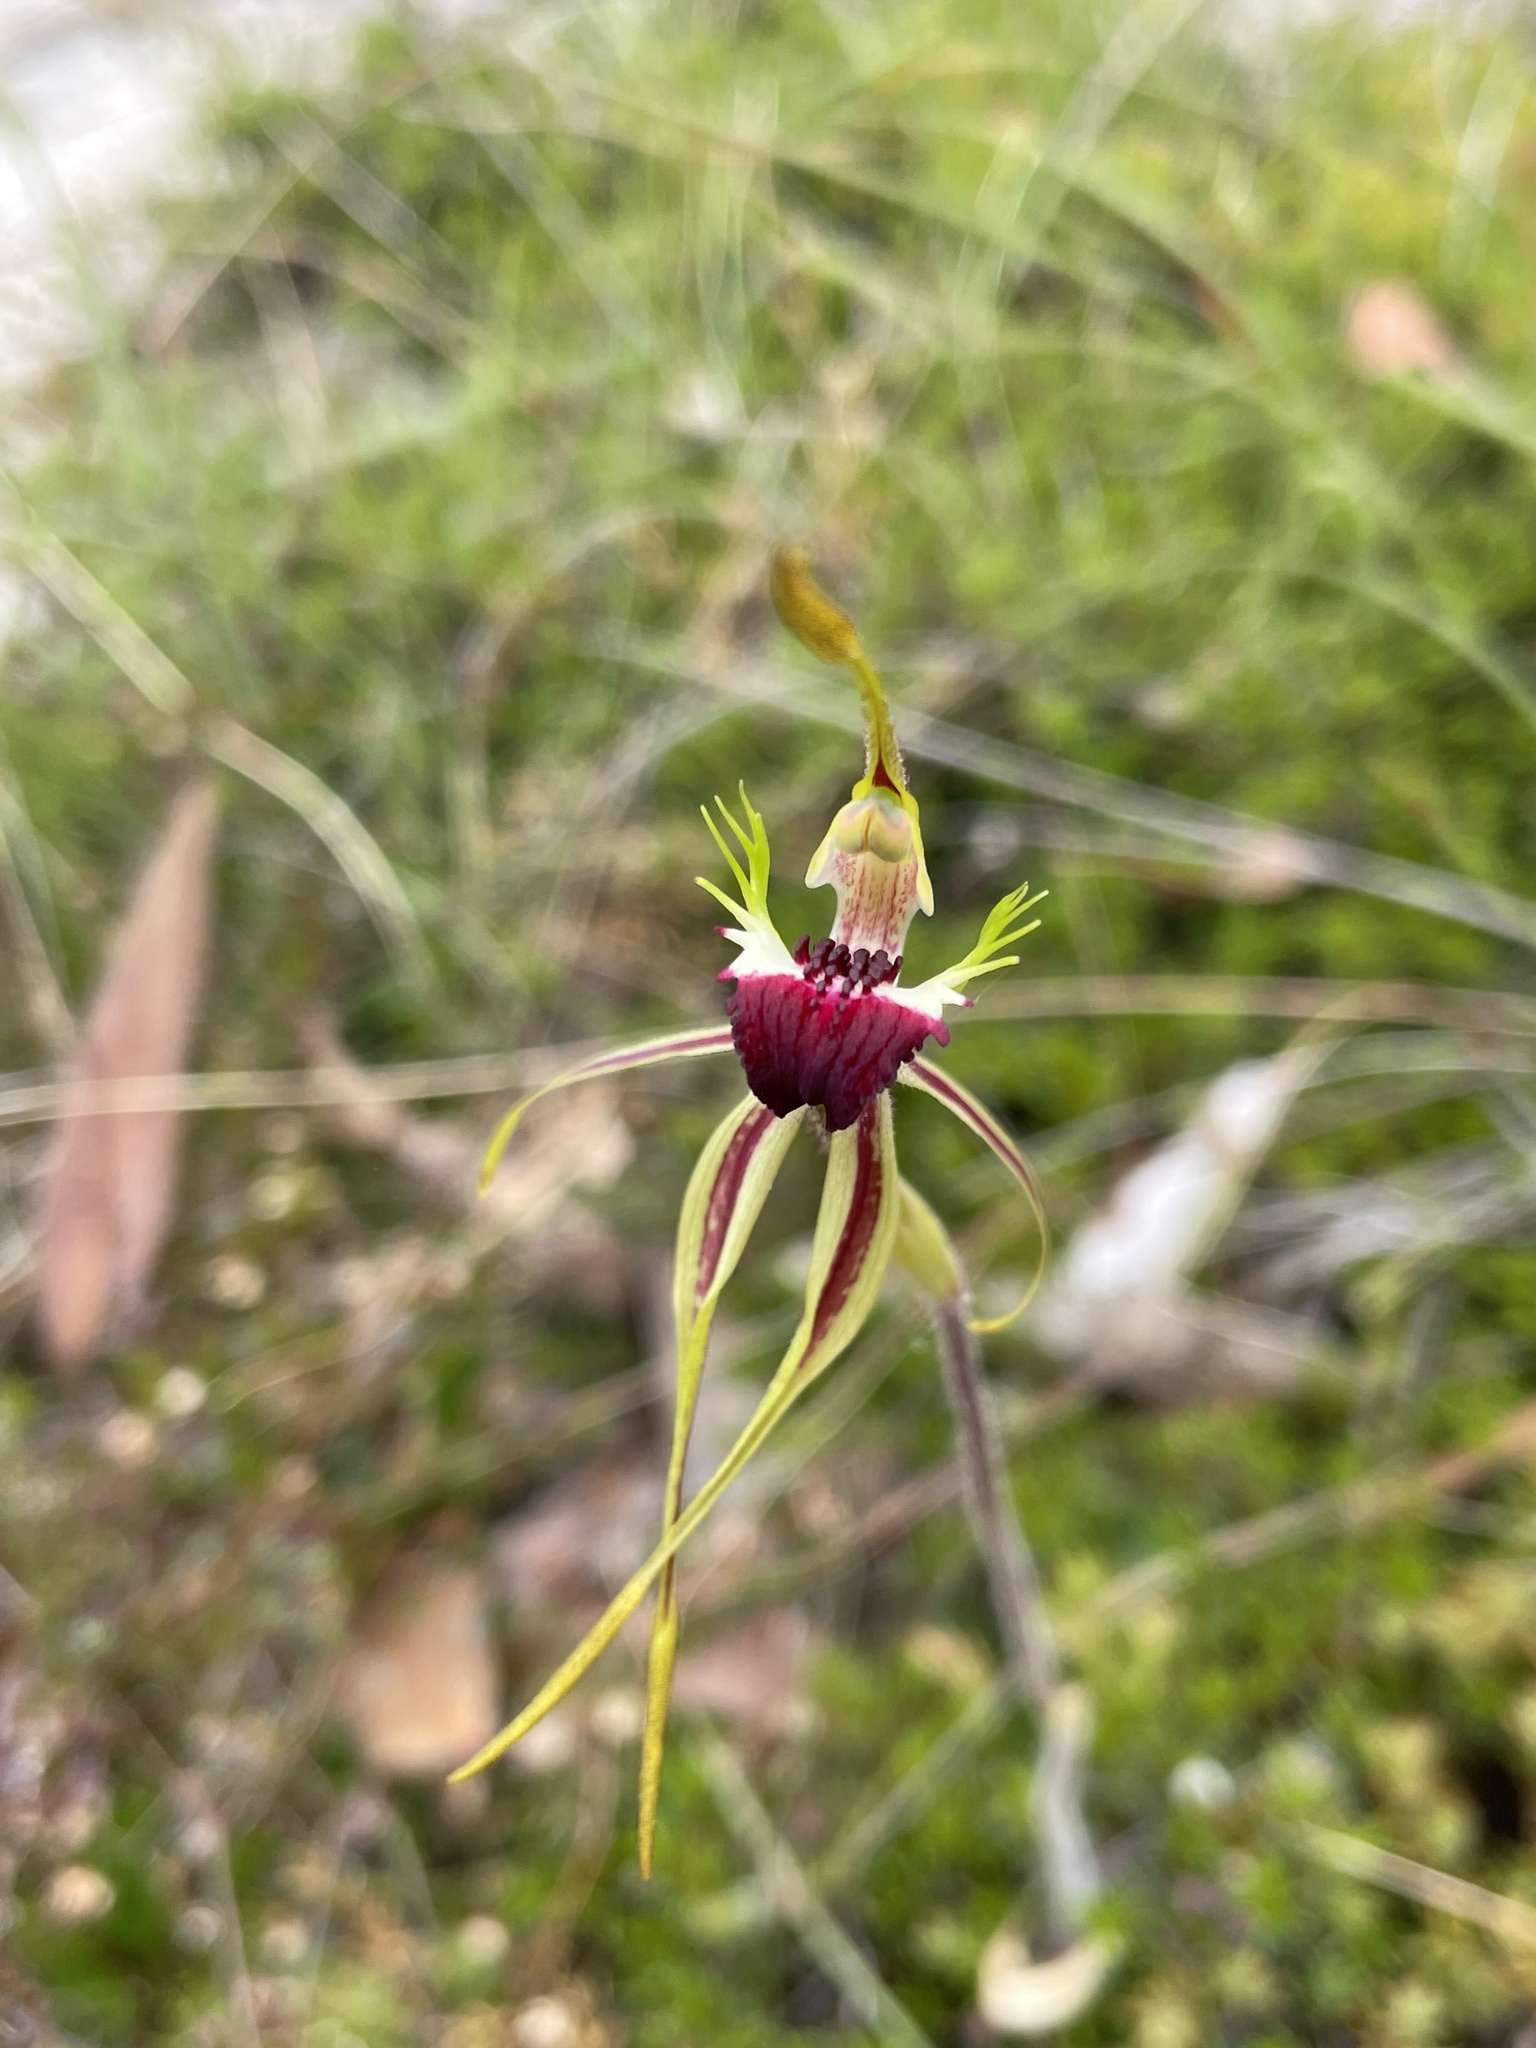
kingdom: Plantae
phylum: Tracheophyta
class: Liliopsida
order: Asparagales
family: Orchidaceae
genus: Caladenia
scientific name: Caladenia dilatata
